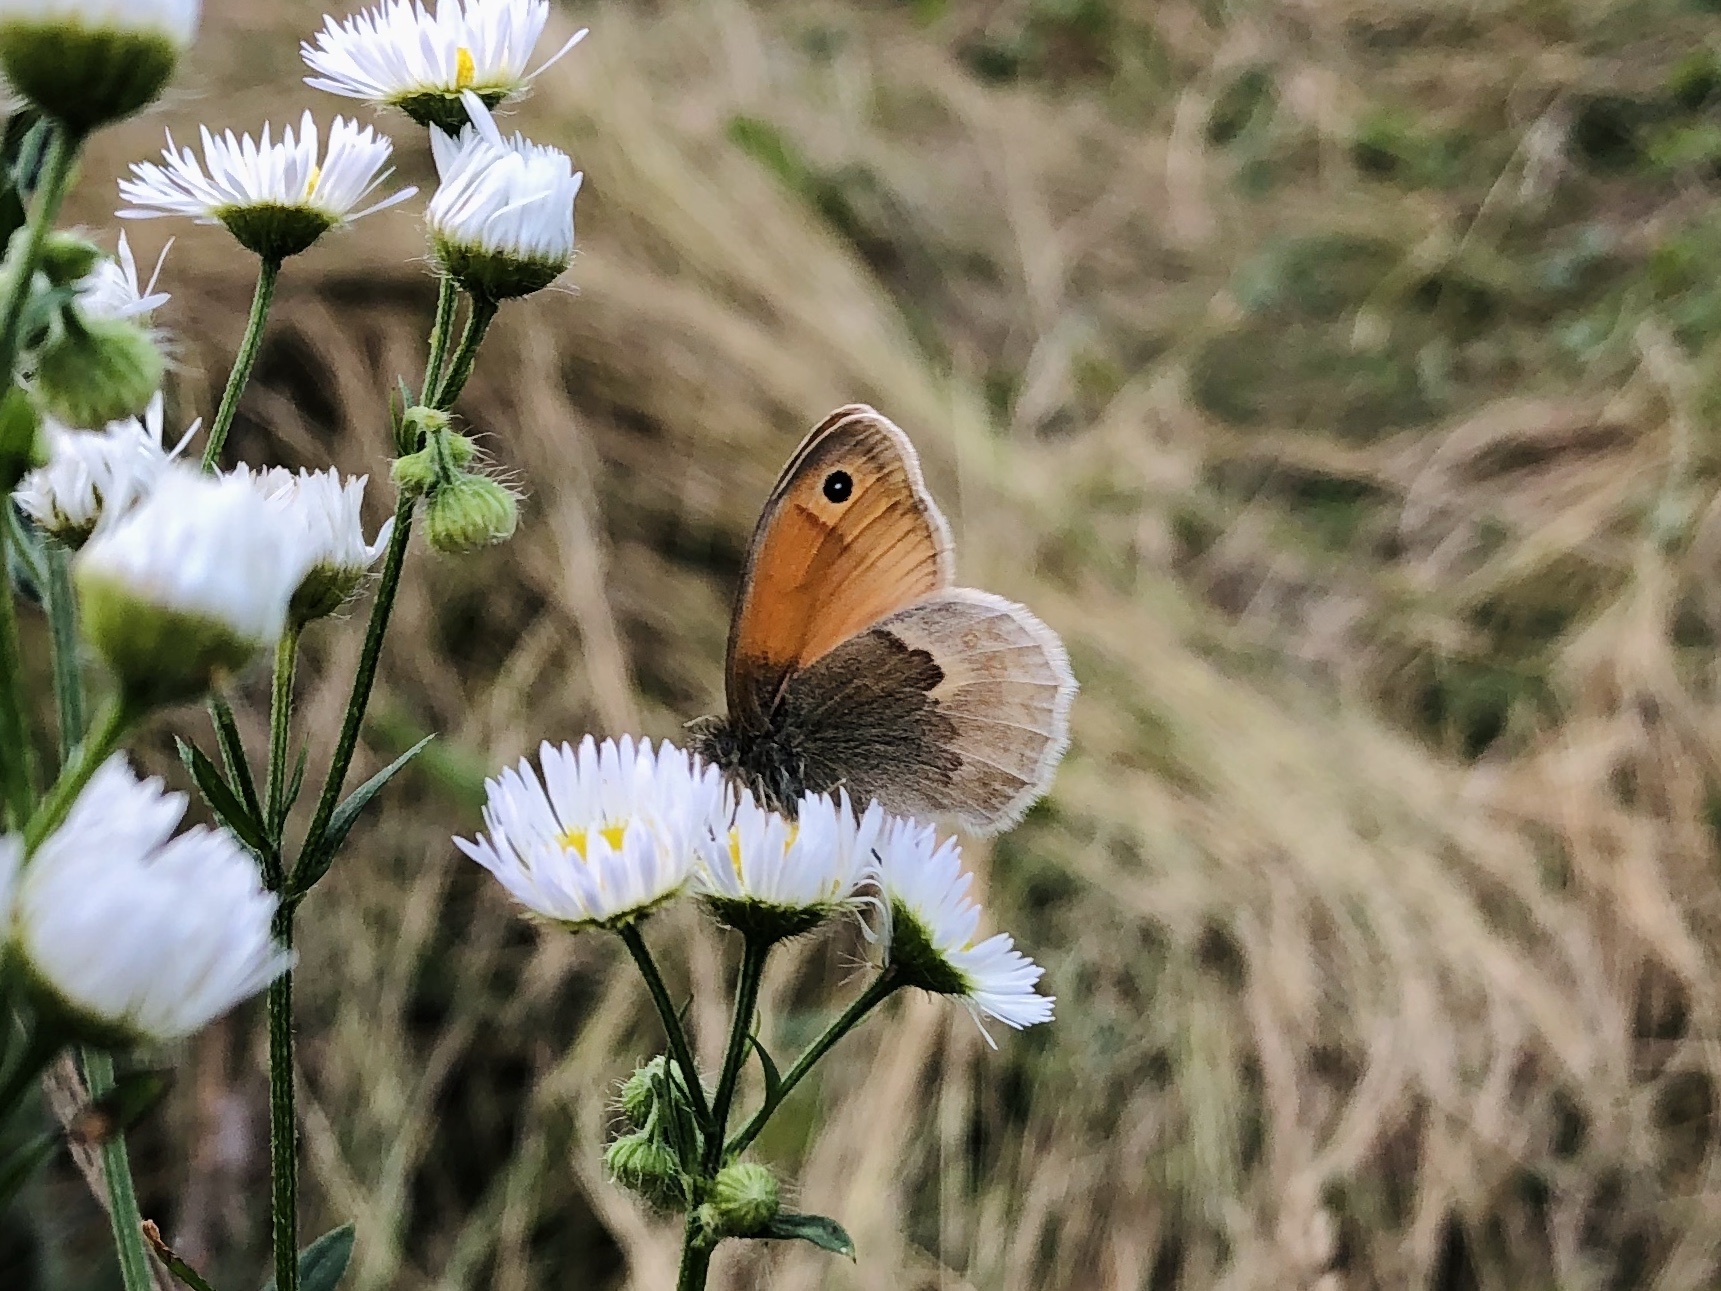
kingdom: Animalia
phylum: Arthropoda
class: Insecta
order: Lepidoptera
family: Nymphalidae
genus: Coenonympha
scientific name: Coenonympha pamphilus
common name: Small heath
